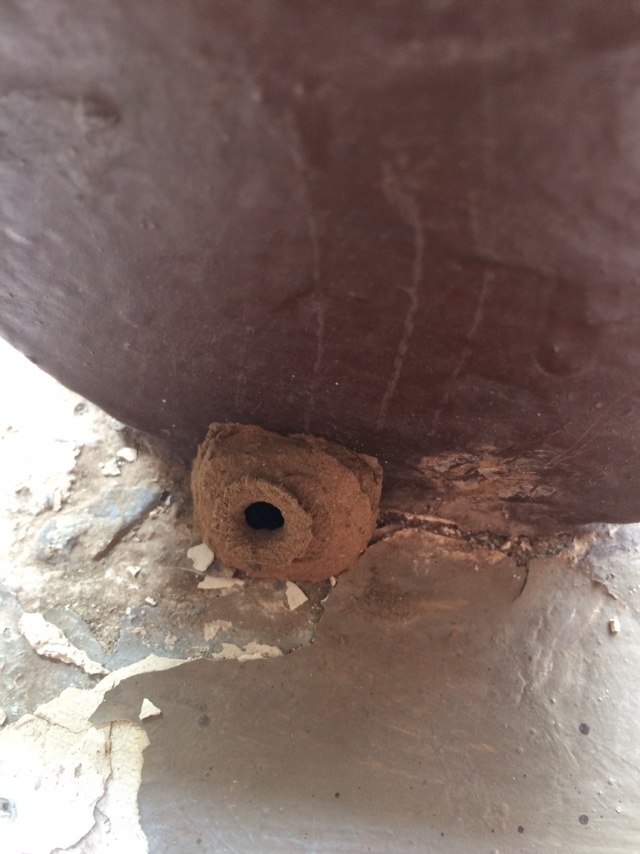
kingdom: Animalia
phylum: Arthropoda
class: Insecta
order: Hymenoptera
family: Eumenidae
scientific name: Eumenidae
